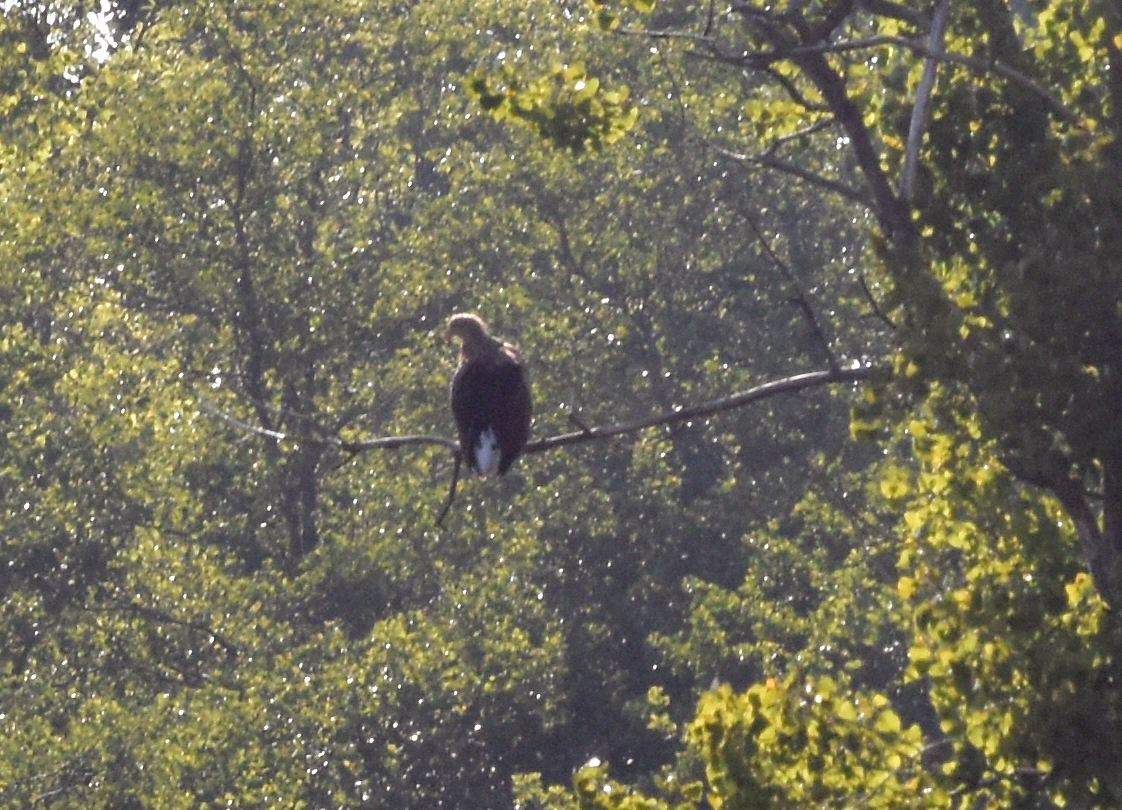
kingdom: Animalia
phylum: Chordata
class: Aves
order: Accipitriformes
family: Accipitridae
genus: Haliaeetus
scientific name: Haliaeetus albicilla
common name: White-tailed eagle
